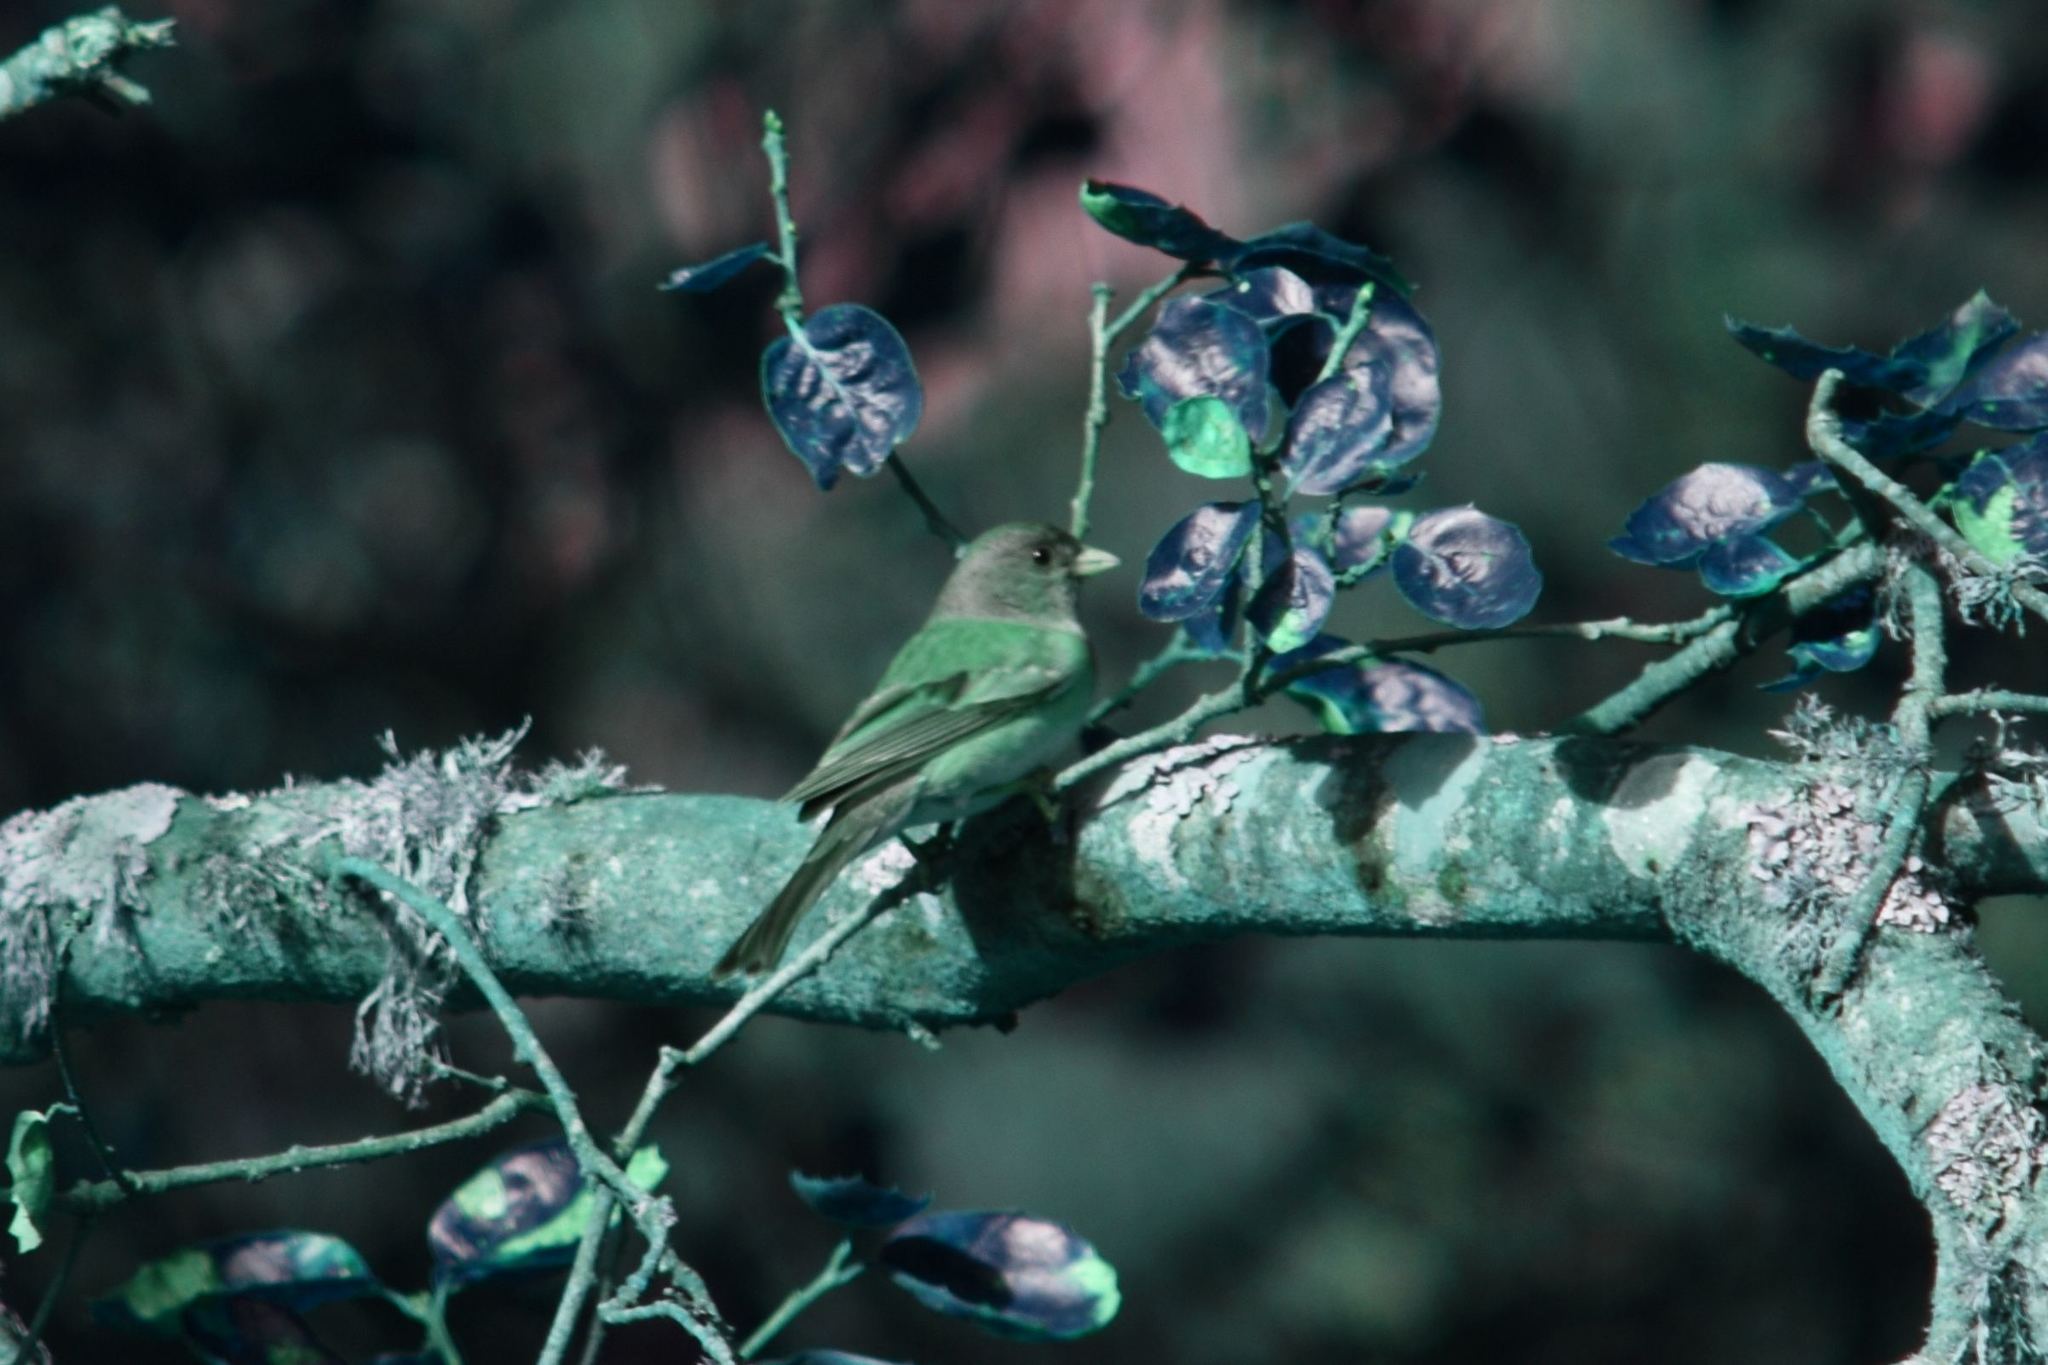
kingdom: Animalia
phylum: Chordata
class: Aves
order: Passeriformes
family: Passerellidae
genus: Junco
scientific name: Junco hyemalis
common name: Dark-eyed junco
